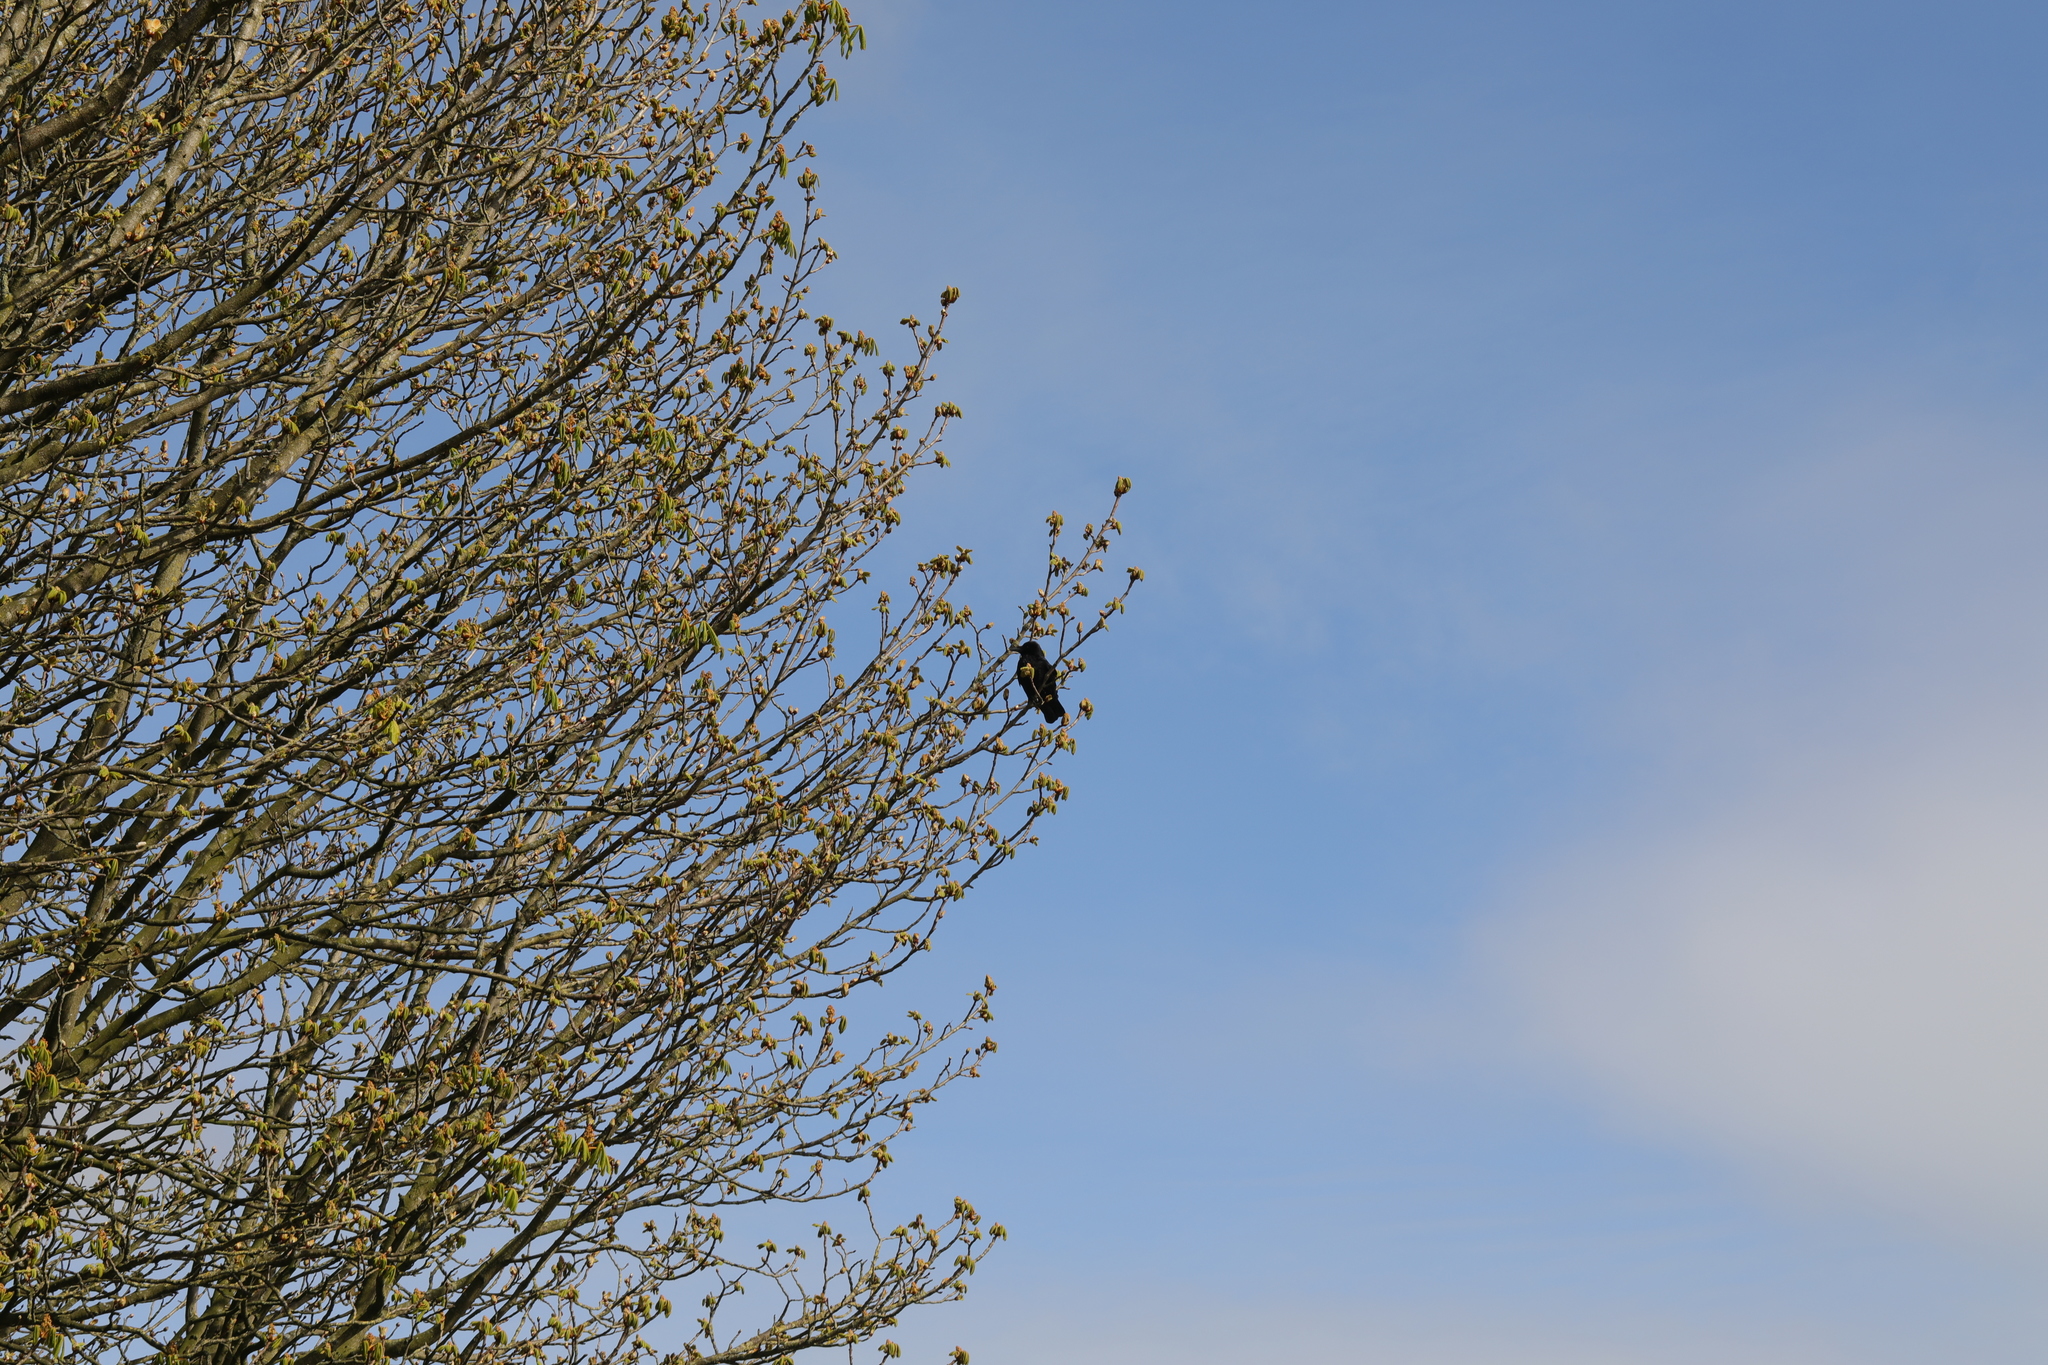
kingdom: Animalia
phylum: Chordata
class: Aves
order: Passeriformes
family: Corvidae
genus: Corvus
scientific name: Corvus corone
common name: Carrion crow
